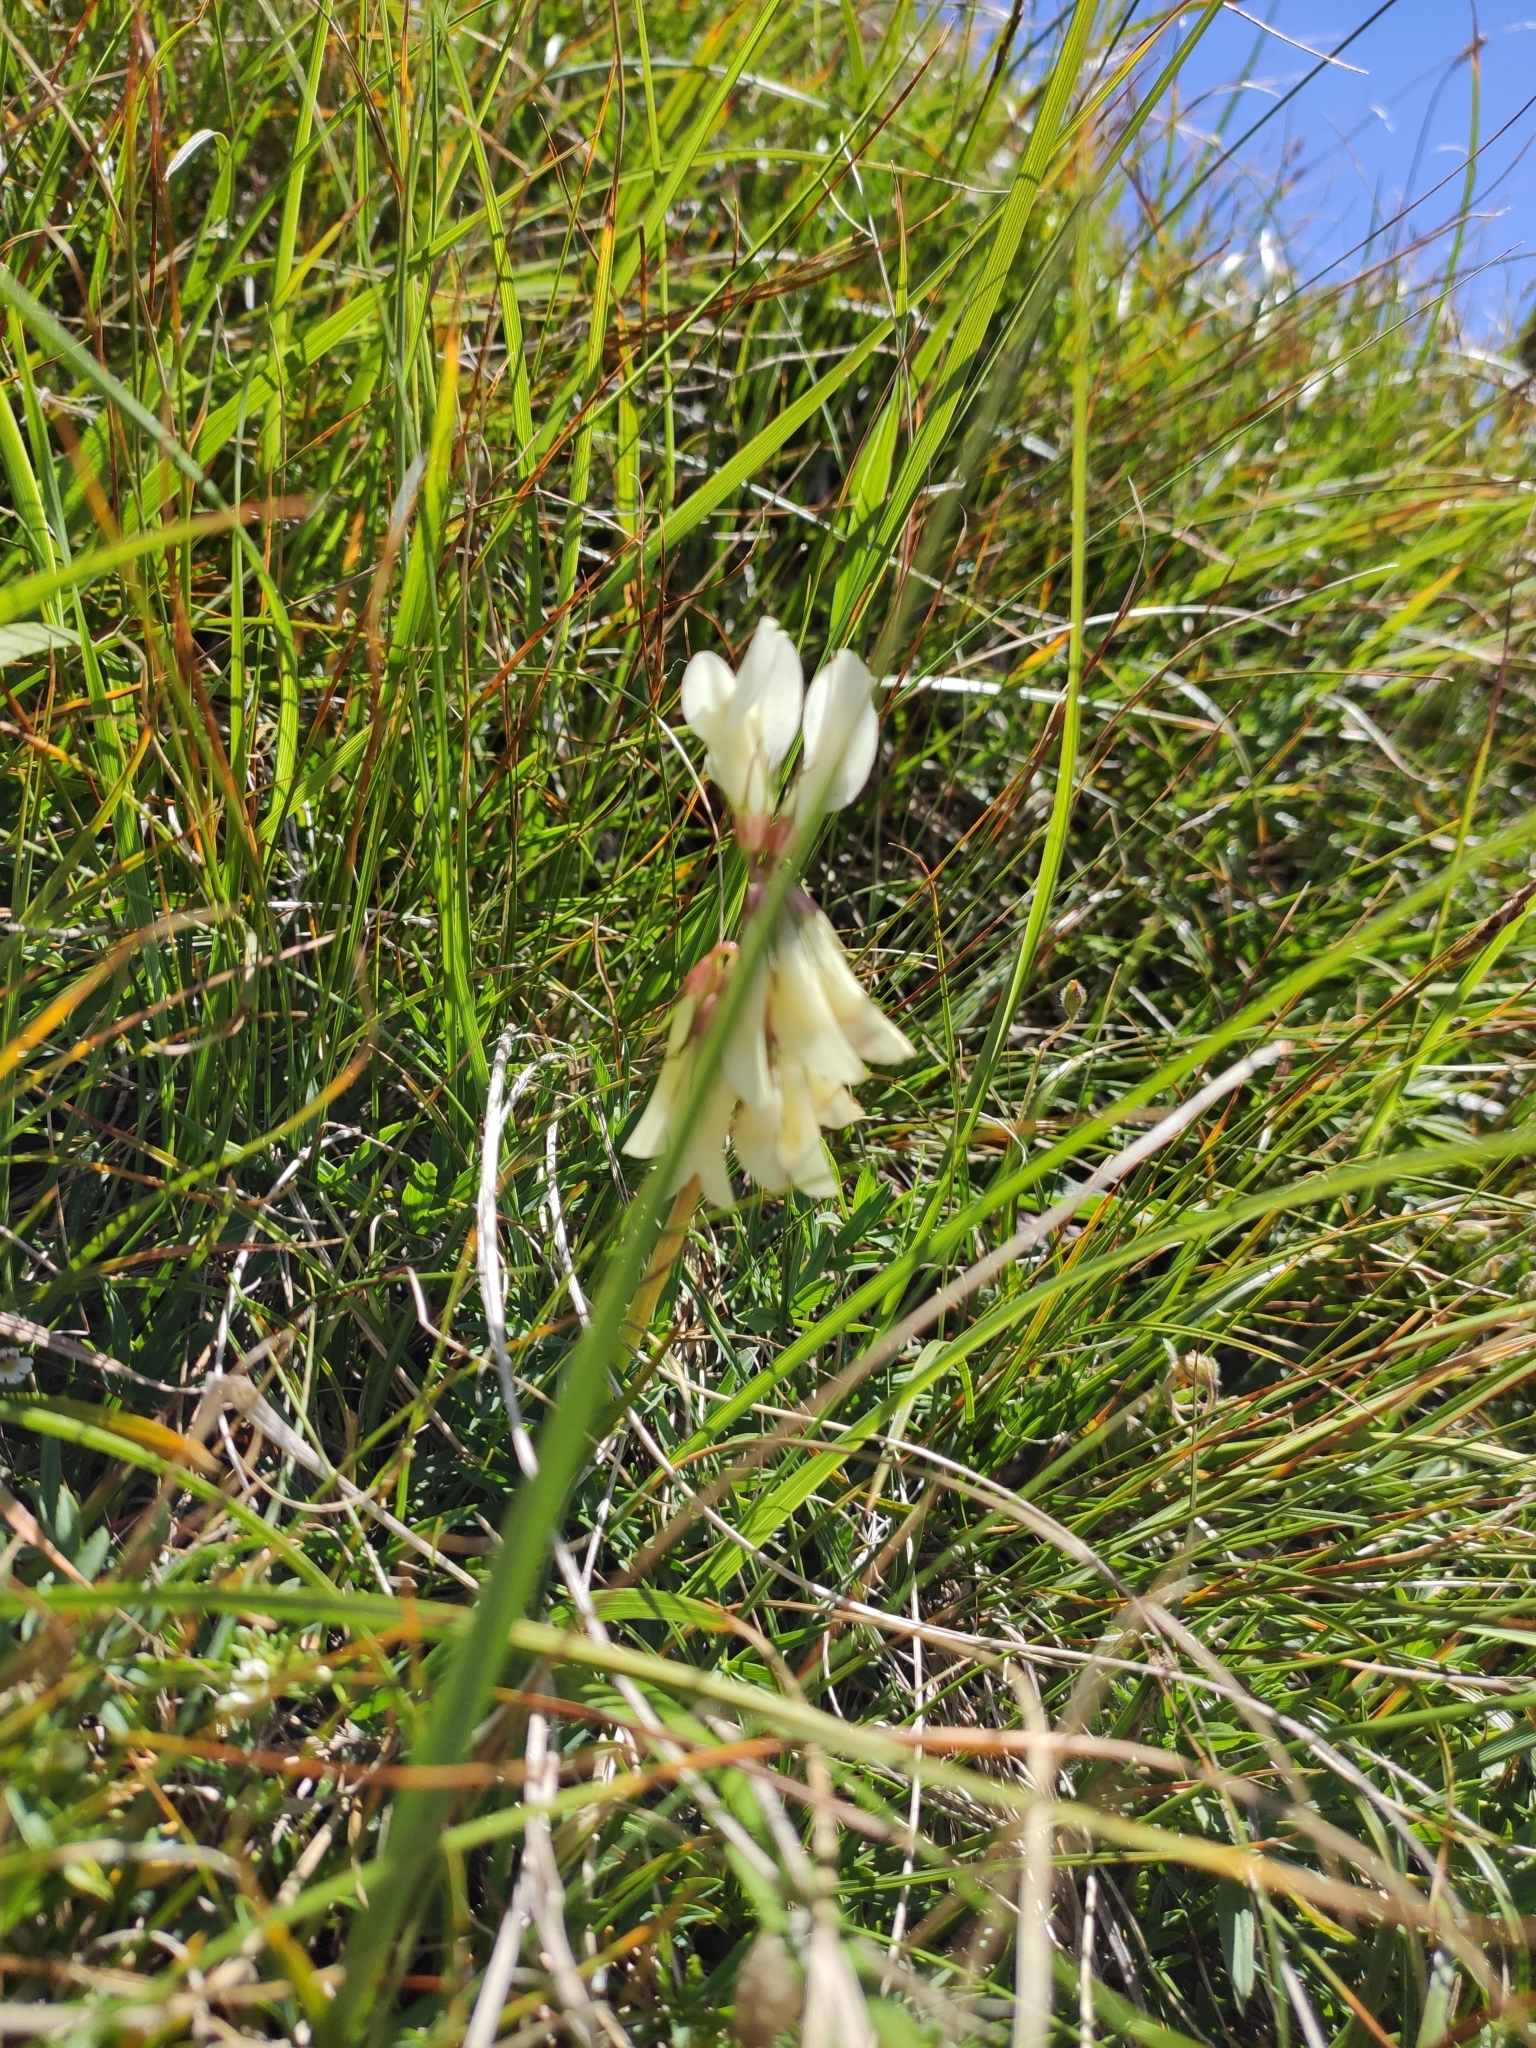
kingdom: Plantae
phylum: Tracheophyta
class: Magnoliopsida
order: Fabales
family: Fabaceae
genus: Trifolium
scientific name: Trifolium polyphyllum
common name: Many-leaf clover
